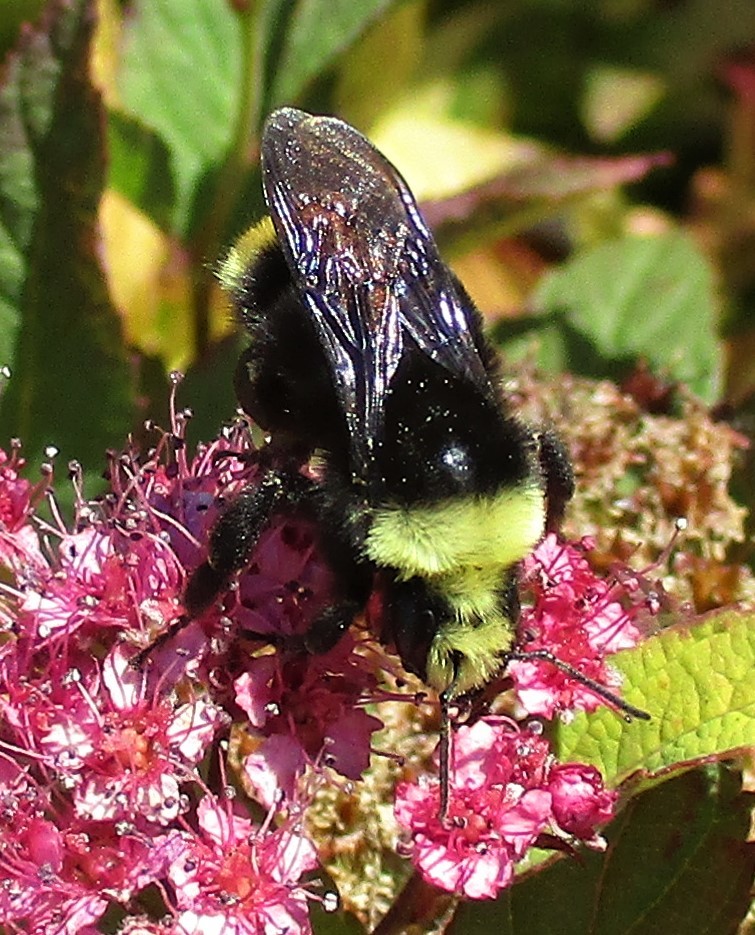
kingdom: Animalia
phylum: Arthropoda
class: Insecta
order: Hymenoptera
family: Apidae
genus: Bombus
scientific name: Bombus vosnesenskii
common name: Vosnesensky bumble bee
